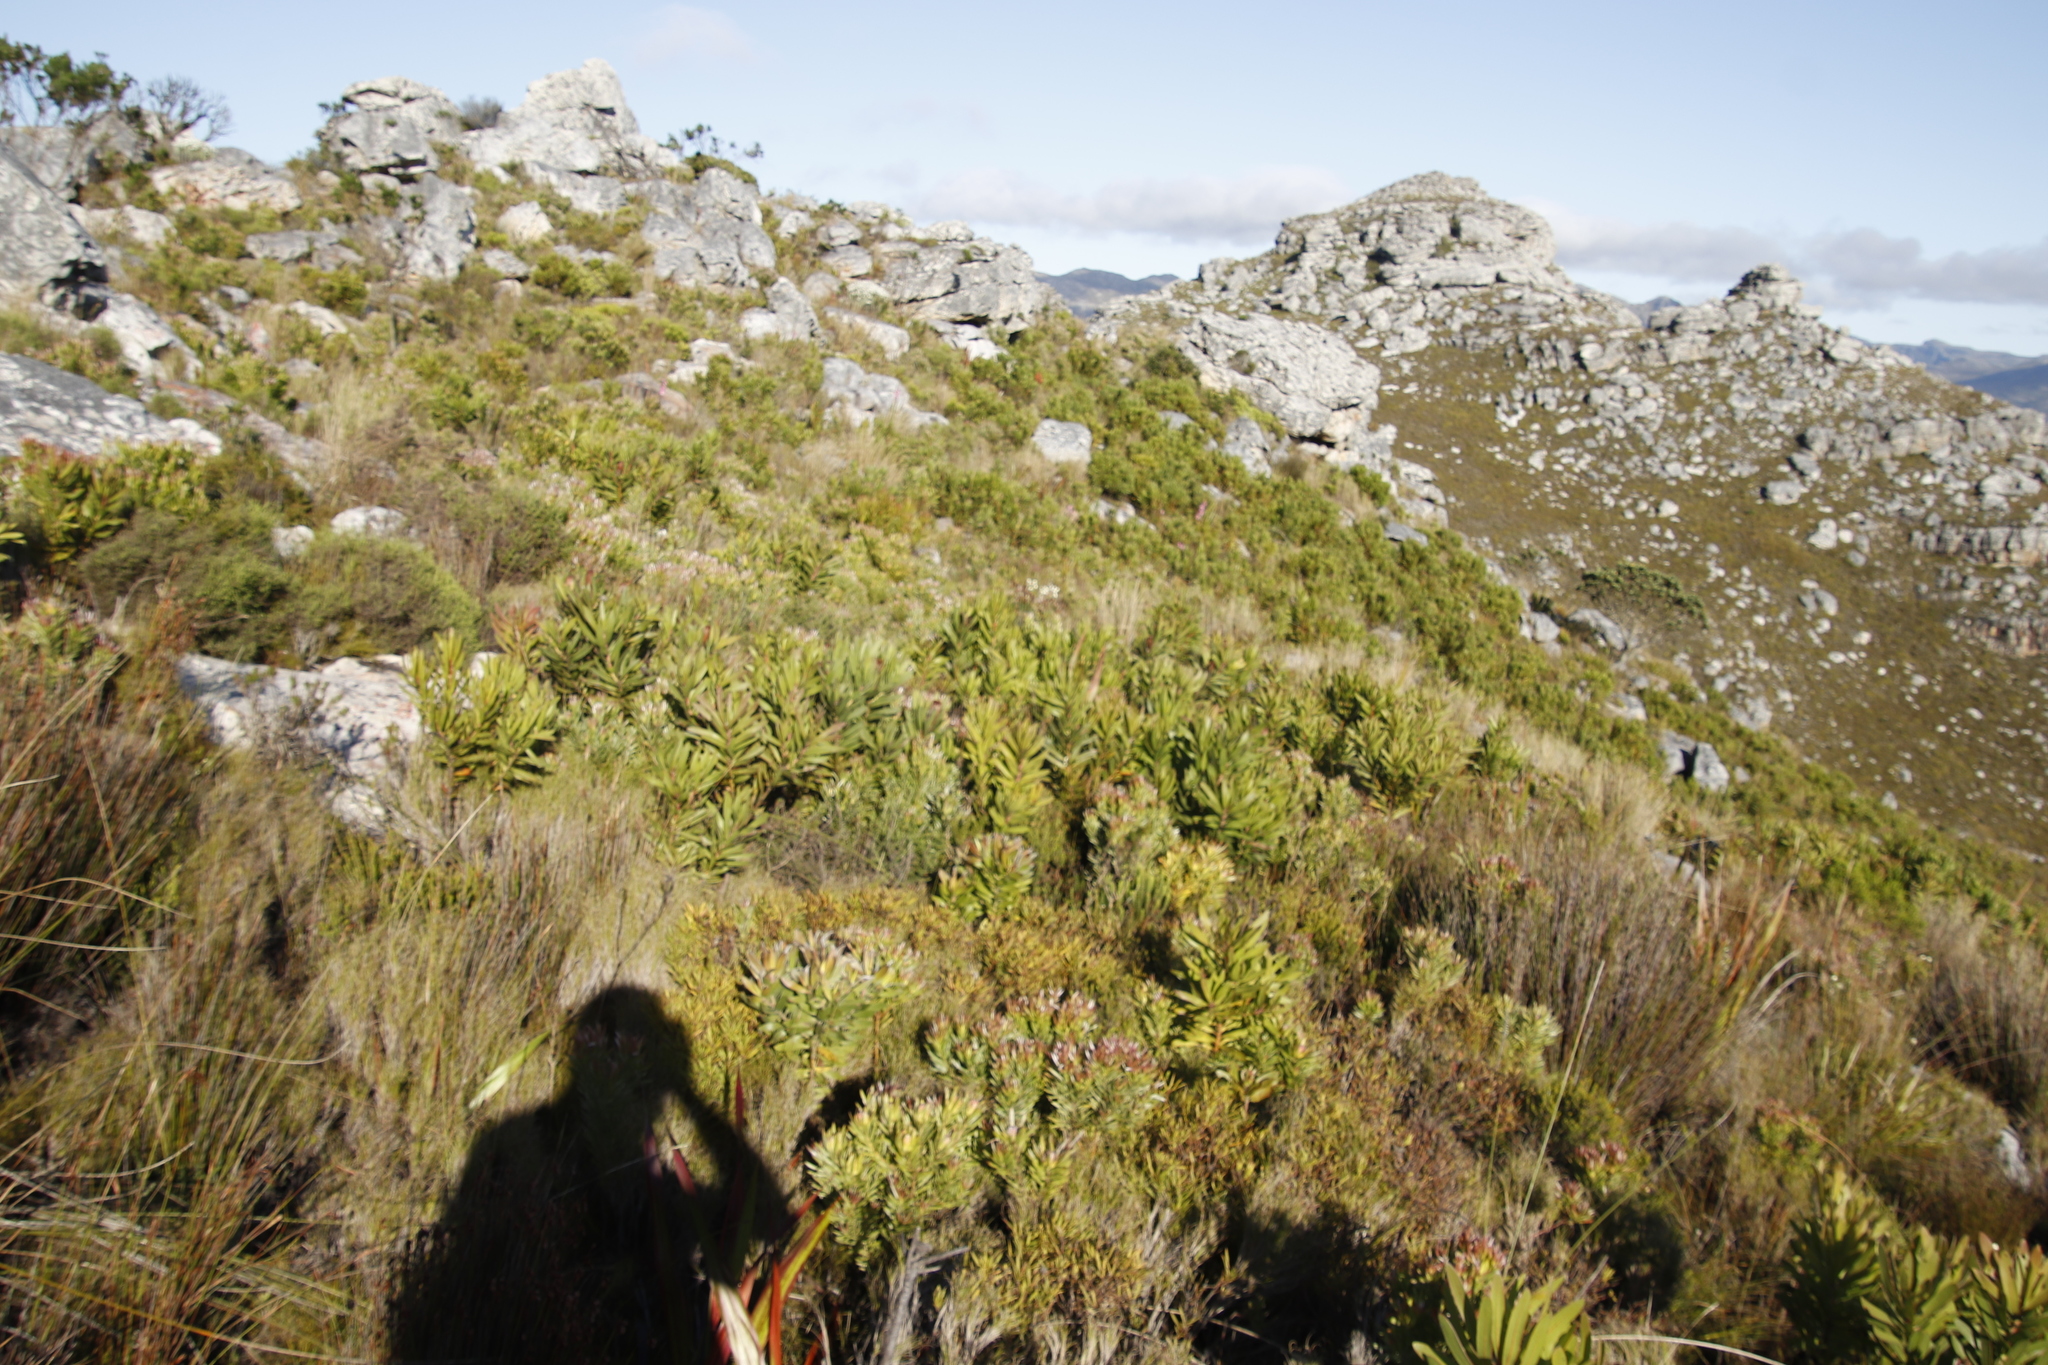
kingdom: Plantae
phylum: Tracheophyta
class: Magnoliopsida
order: Proteales
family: Proteaceae
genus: Protea
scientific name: Protea lepidocarpodendron
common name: Black-bearded protea
